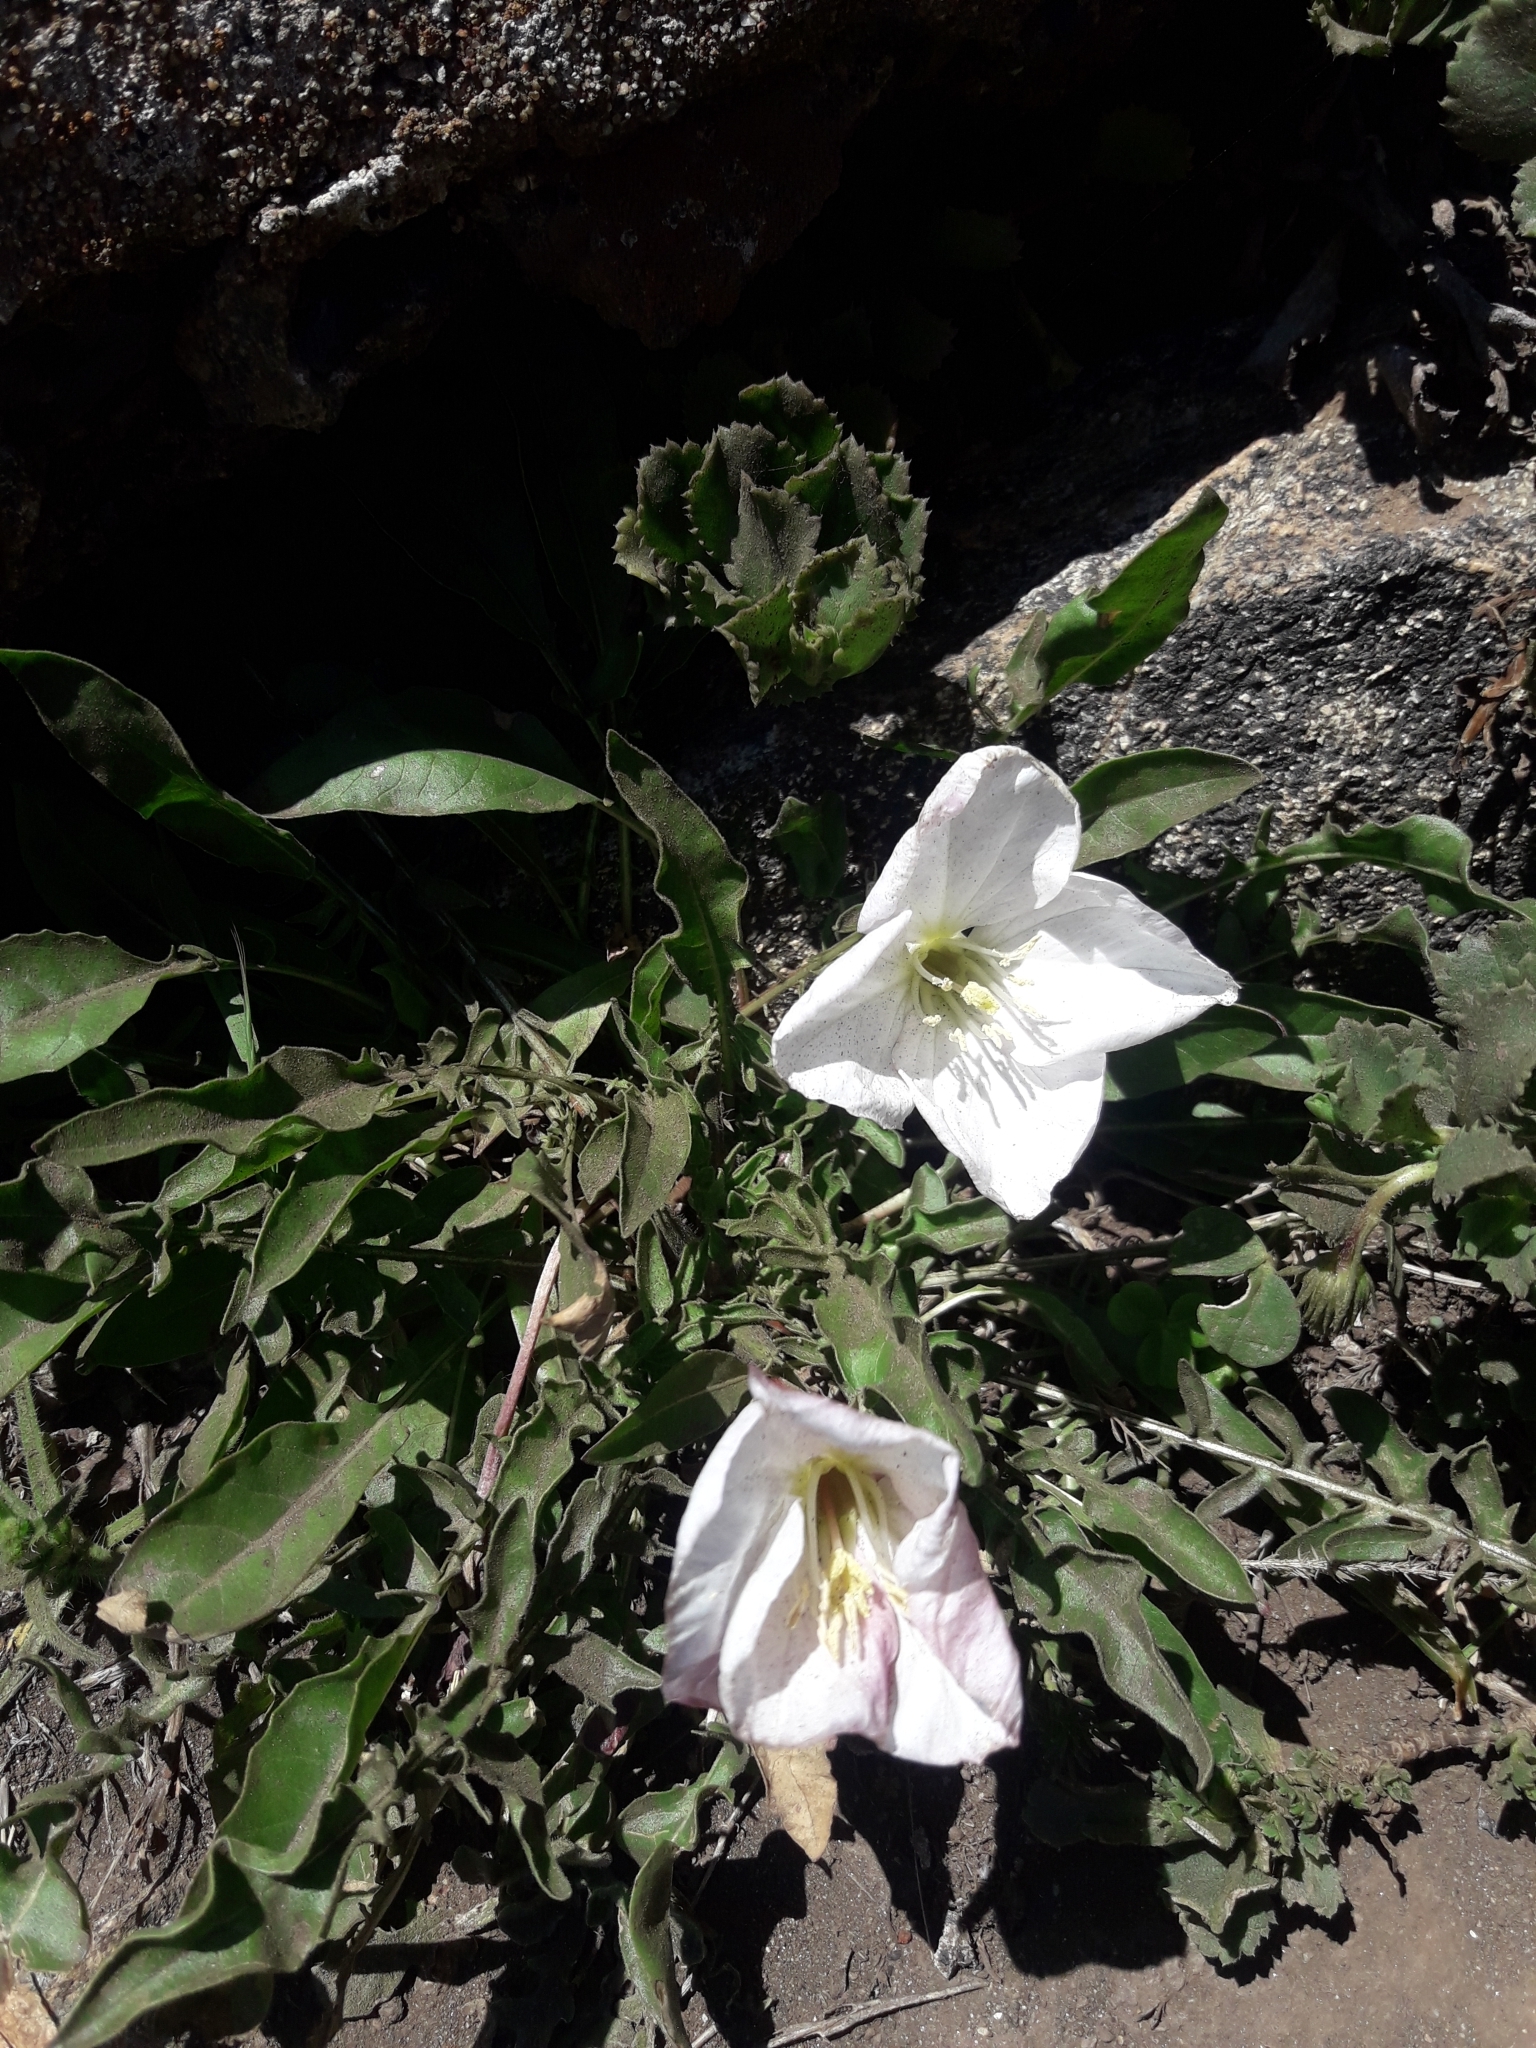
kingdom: Plantae
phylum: Tracheophyta
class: Magnoliopsida
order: Myrtales
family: Onagraceae
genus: Oenothera
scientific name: Oenothera acaulis
